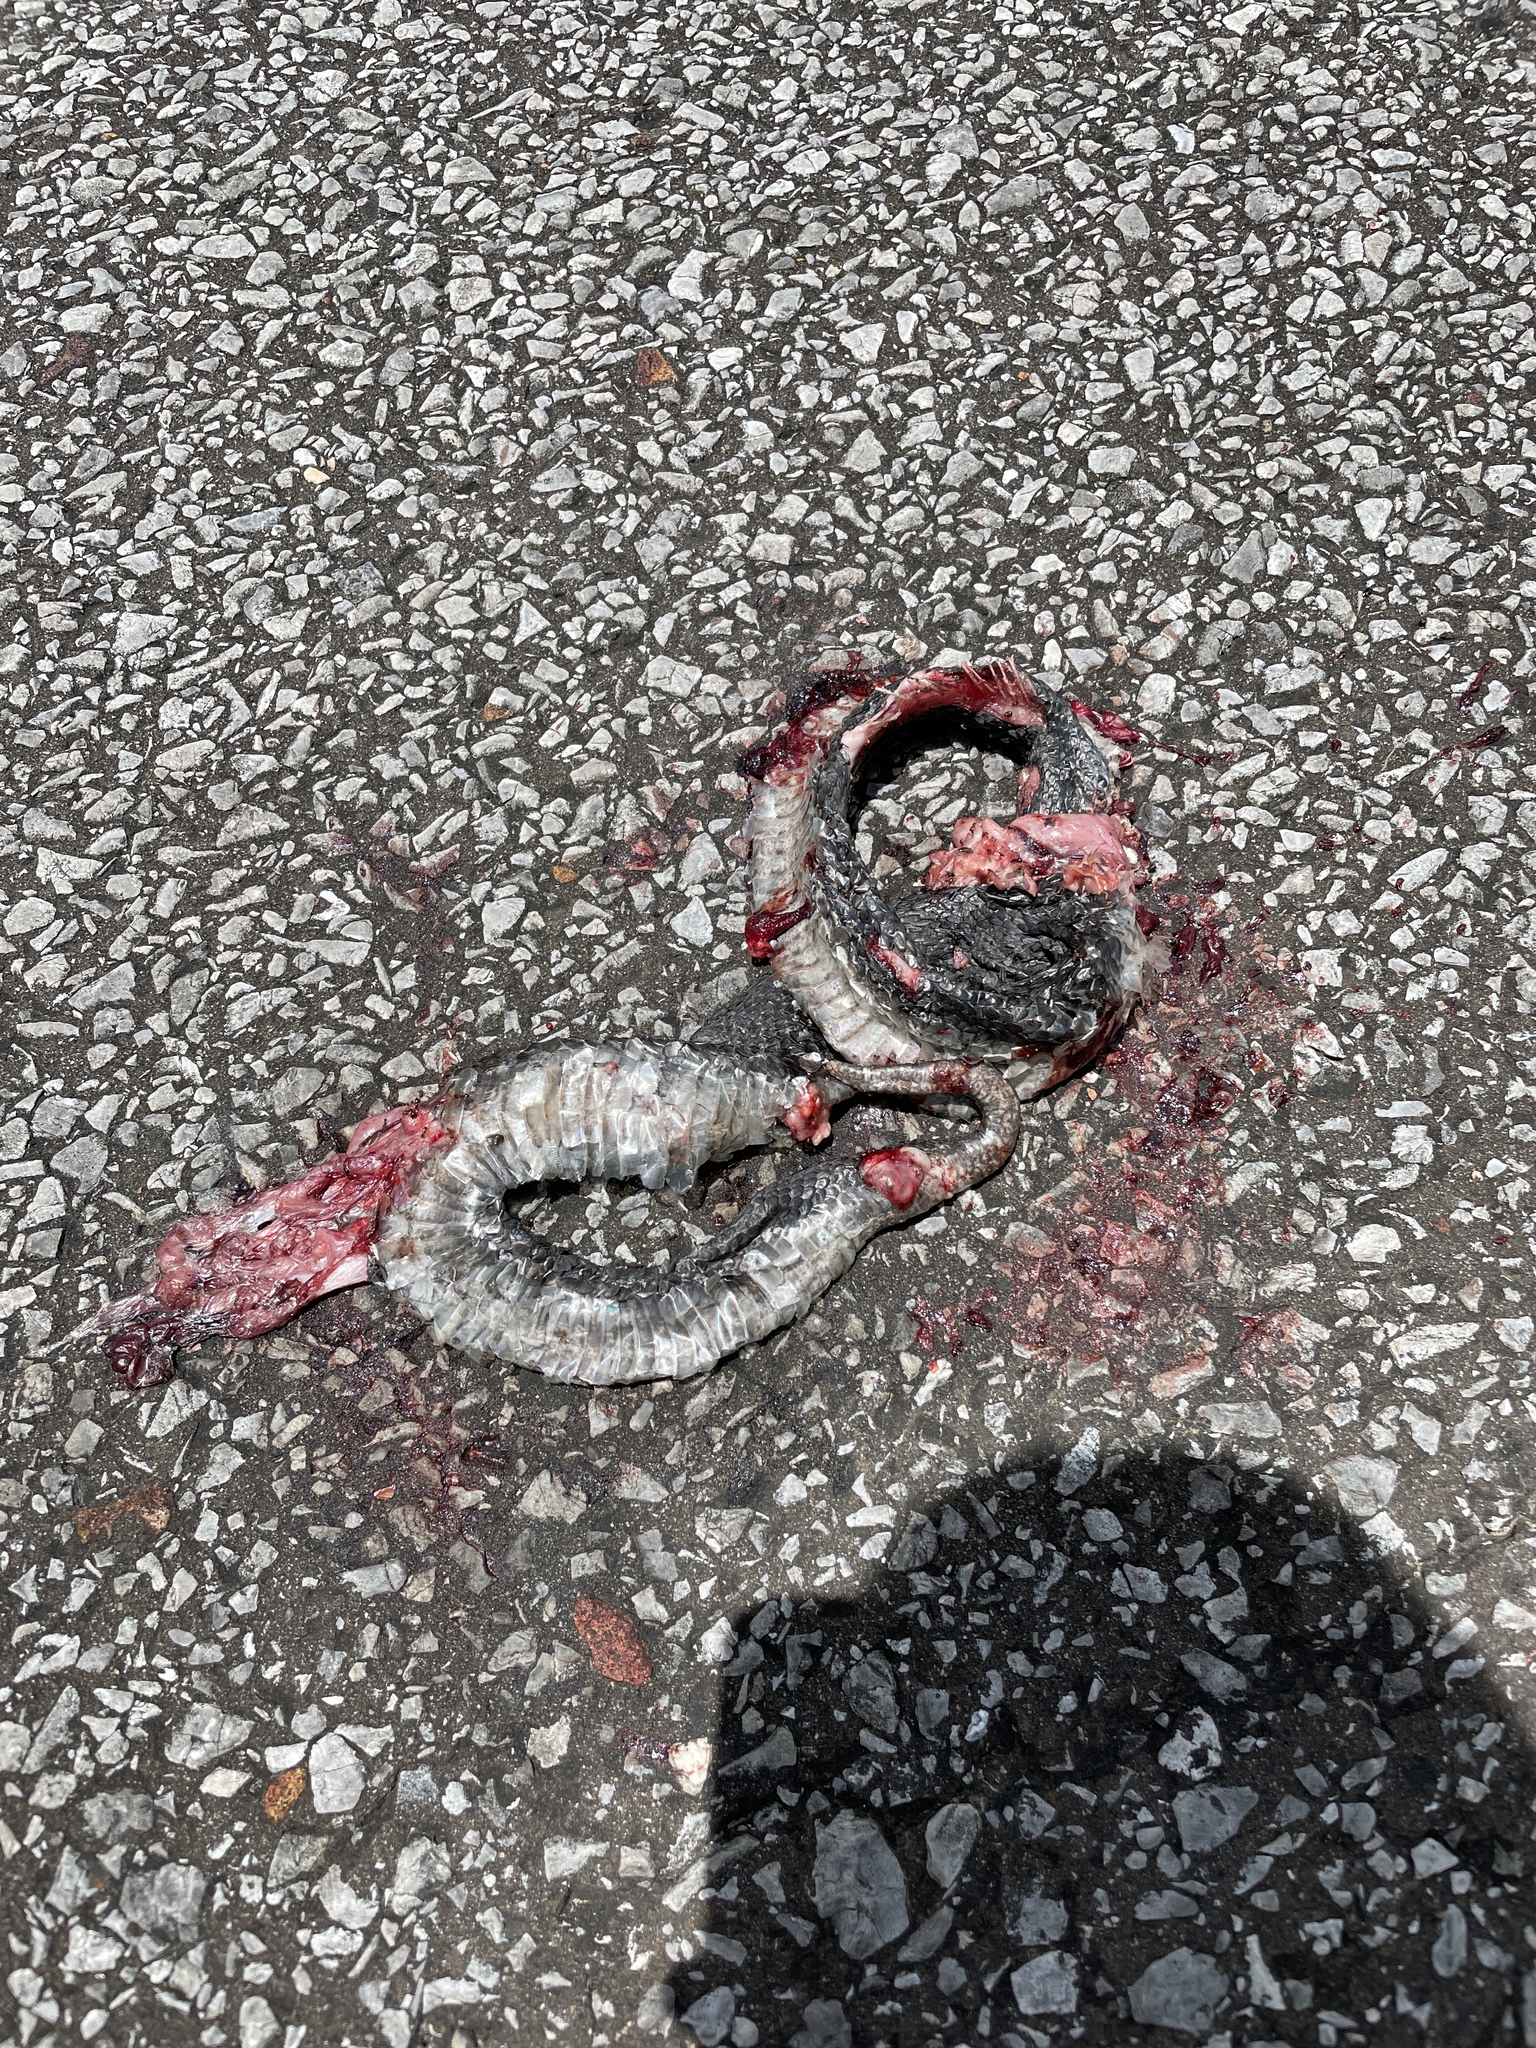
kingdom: Animalia
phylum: Chordata
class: Squamata
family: Colubridae
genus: Heterodon
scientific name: Heterodon platirhinos
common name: Eastern hognose snake
